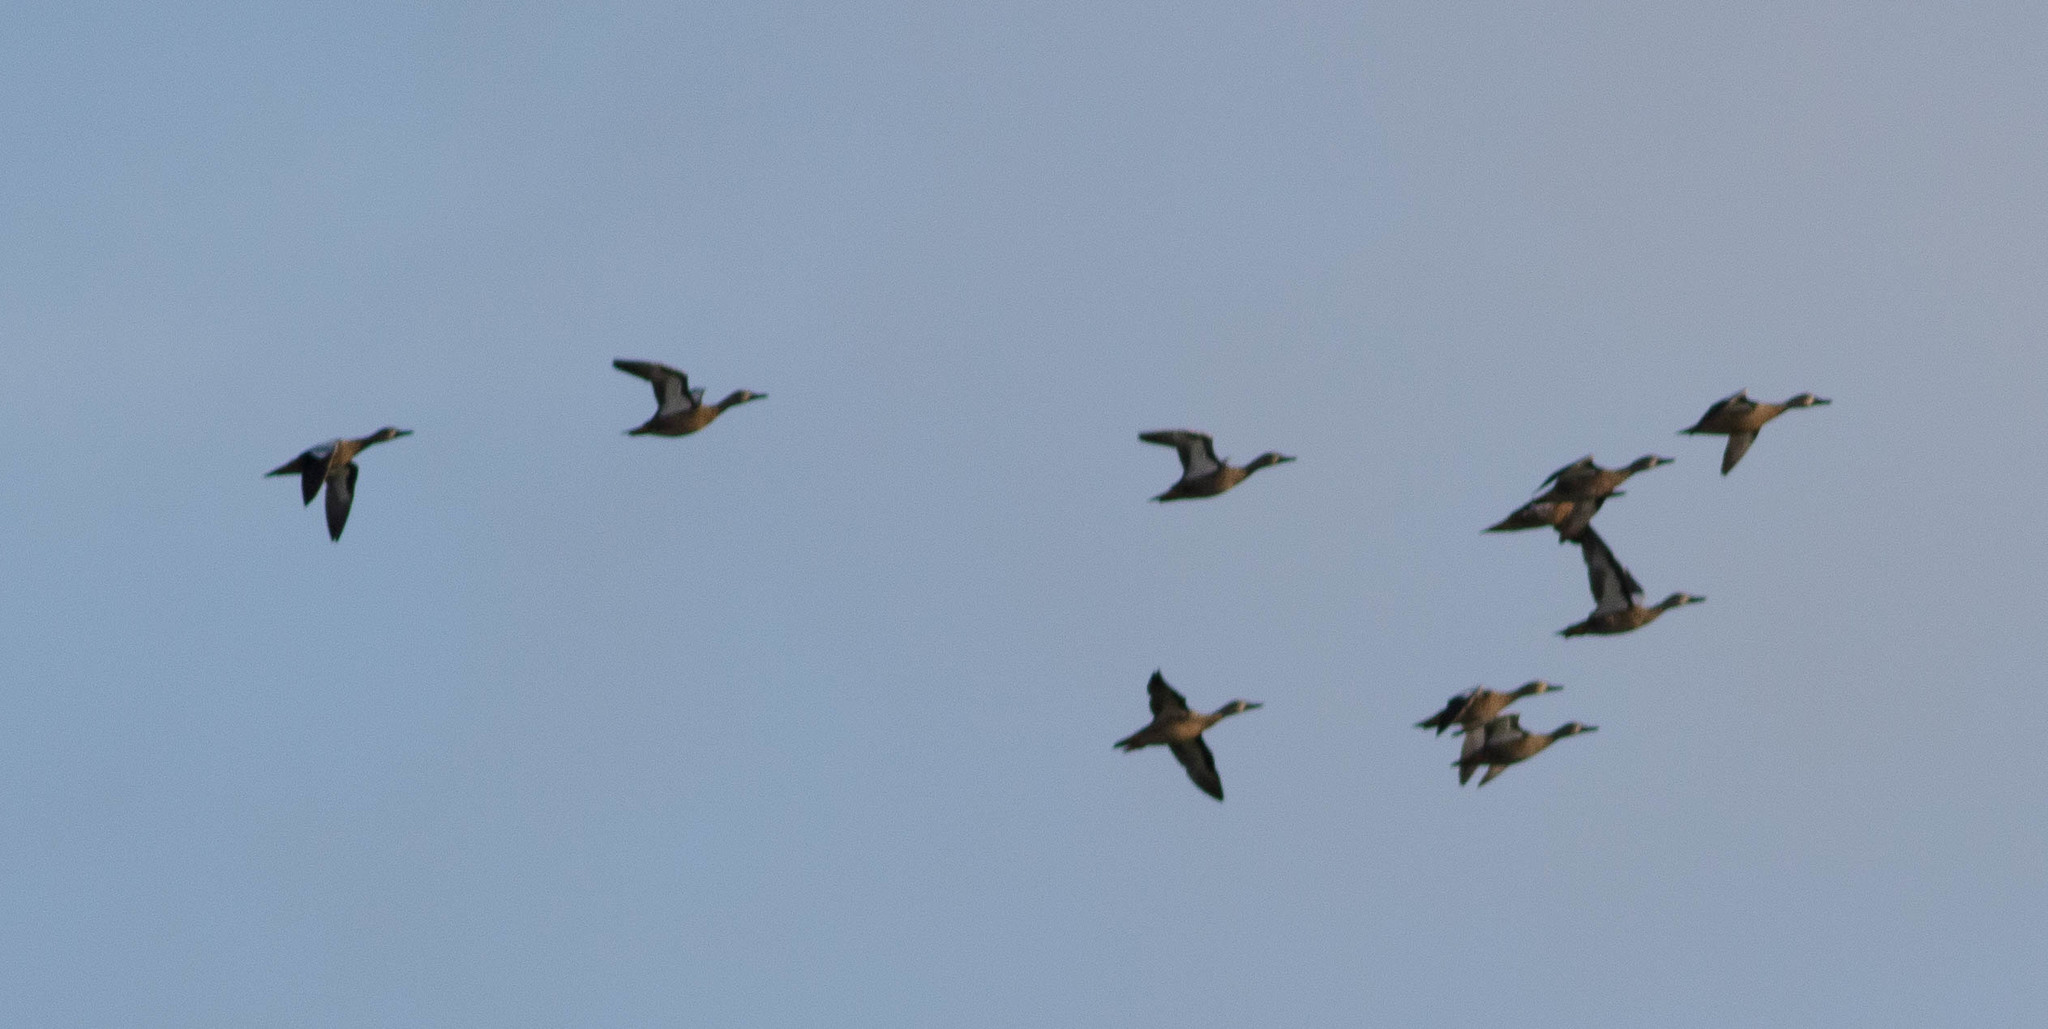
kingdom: Animalia
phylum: Chordata
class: Aves
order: Pelecaniformes
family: Threskiornithidae
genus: Plegadis
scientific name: Plegadis falcinellus
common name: Glossy ibis
